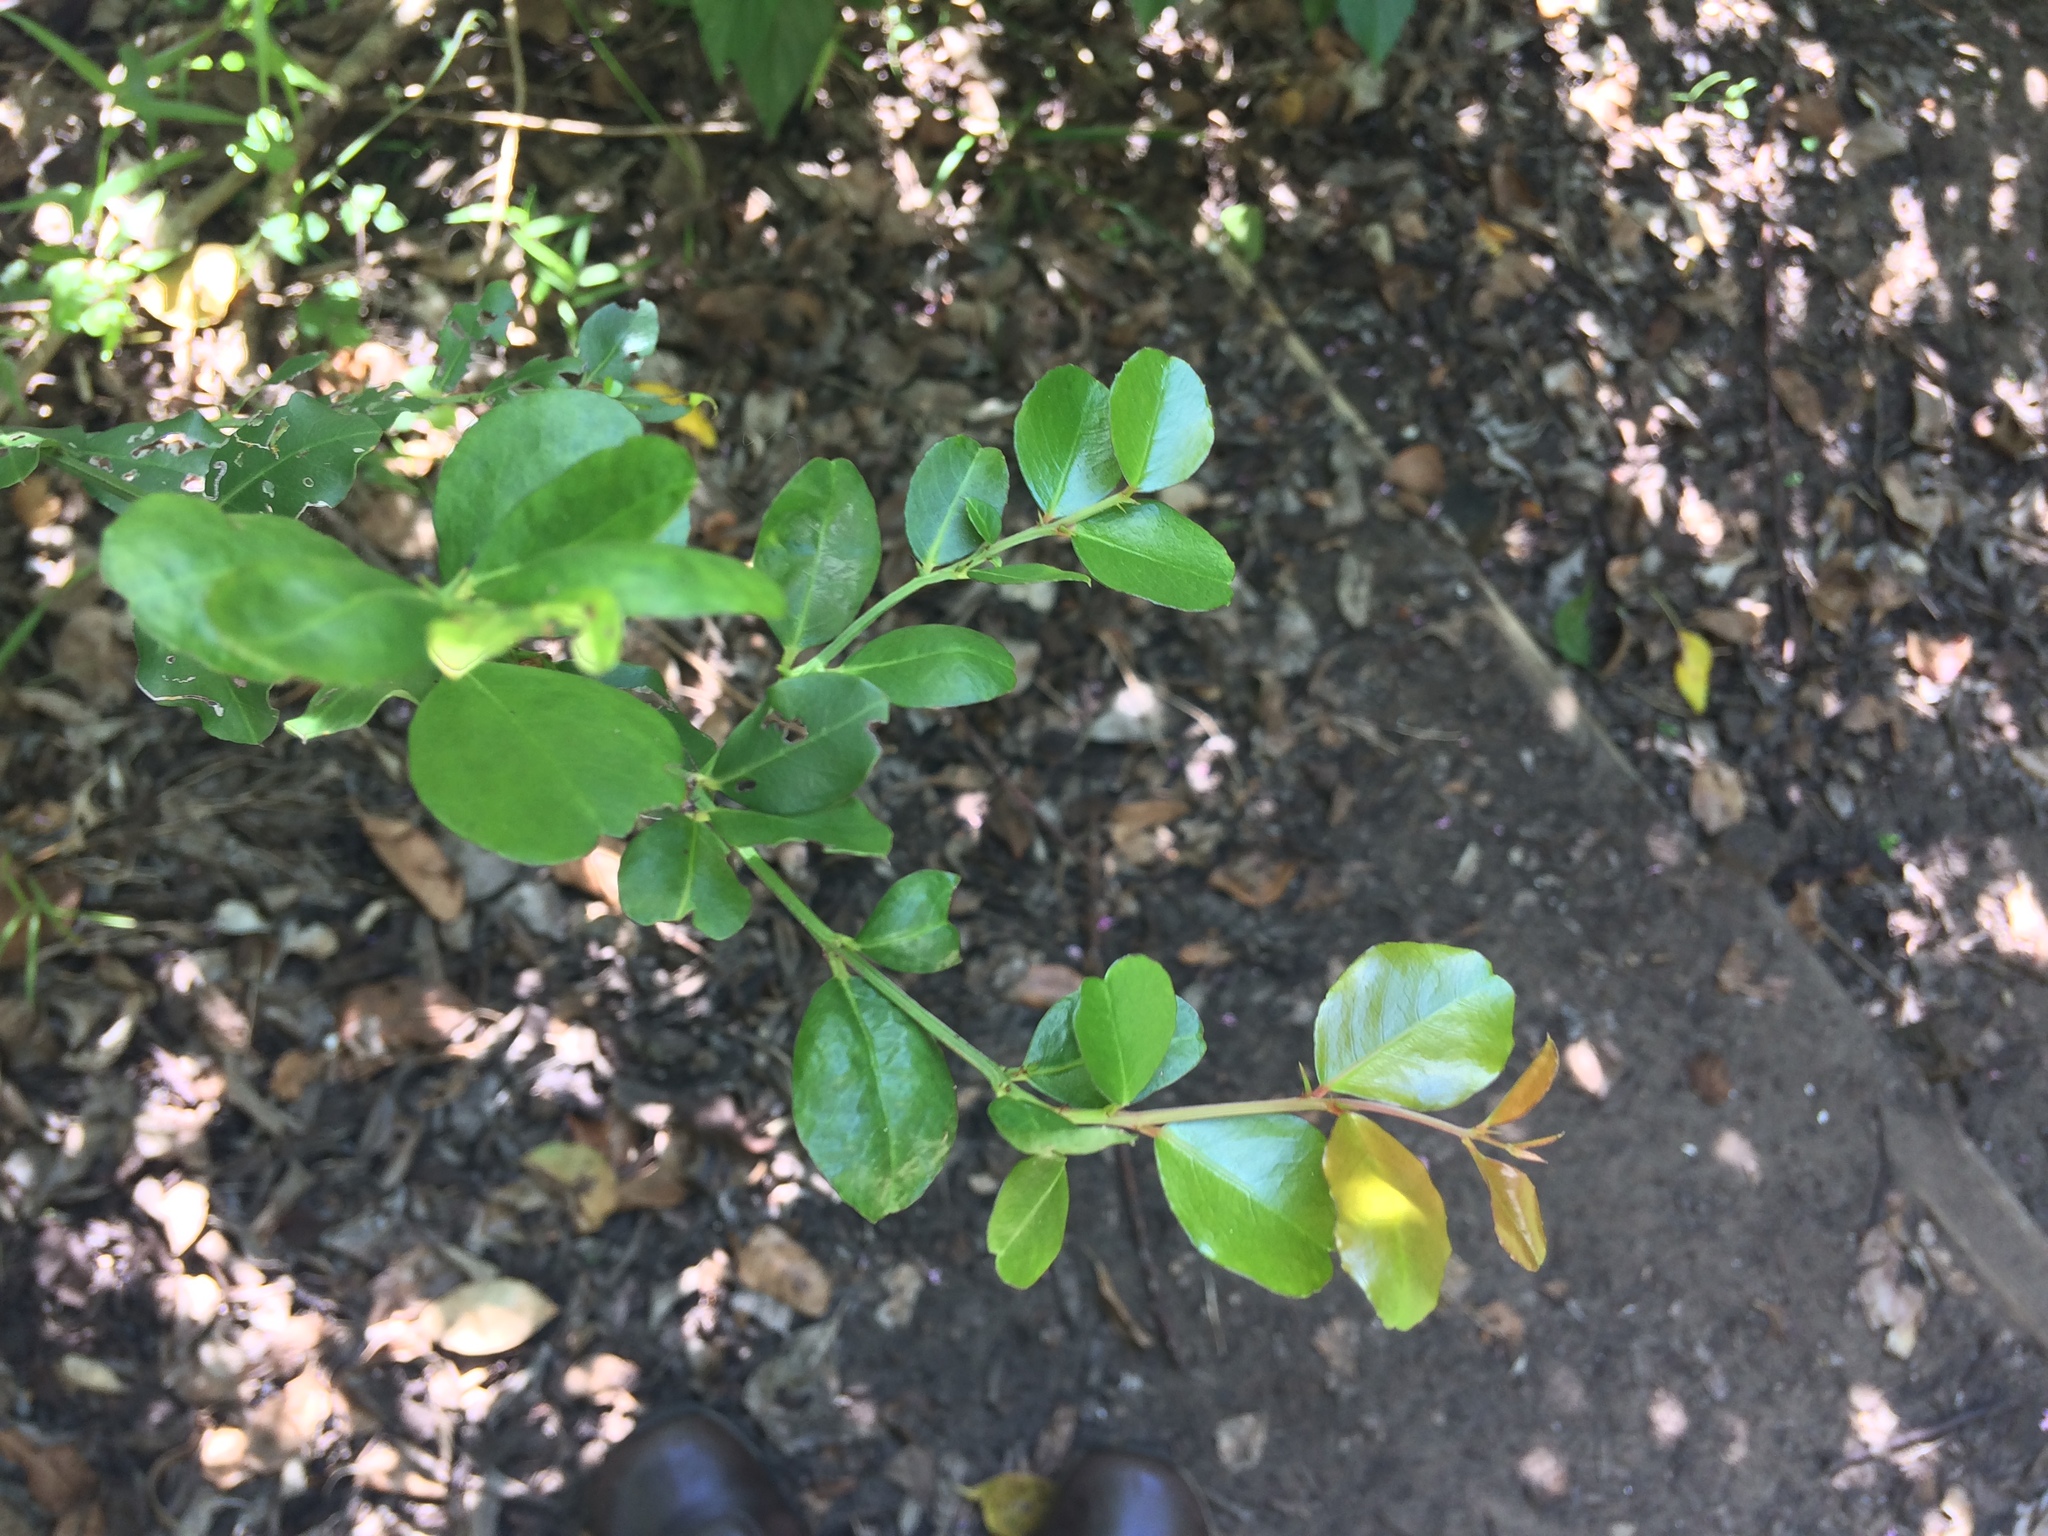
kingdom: Plantae
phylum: Tracheophyta
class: Magnoliopsida
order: Rosales
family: Rhamnaceae
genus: Scutia
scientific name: Scutia myrtina
